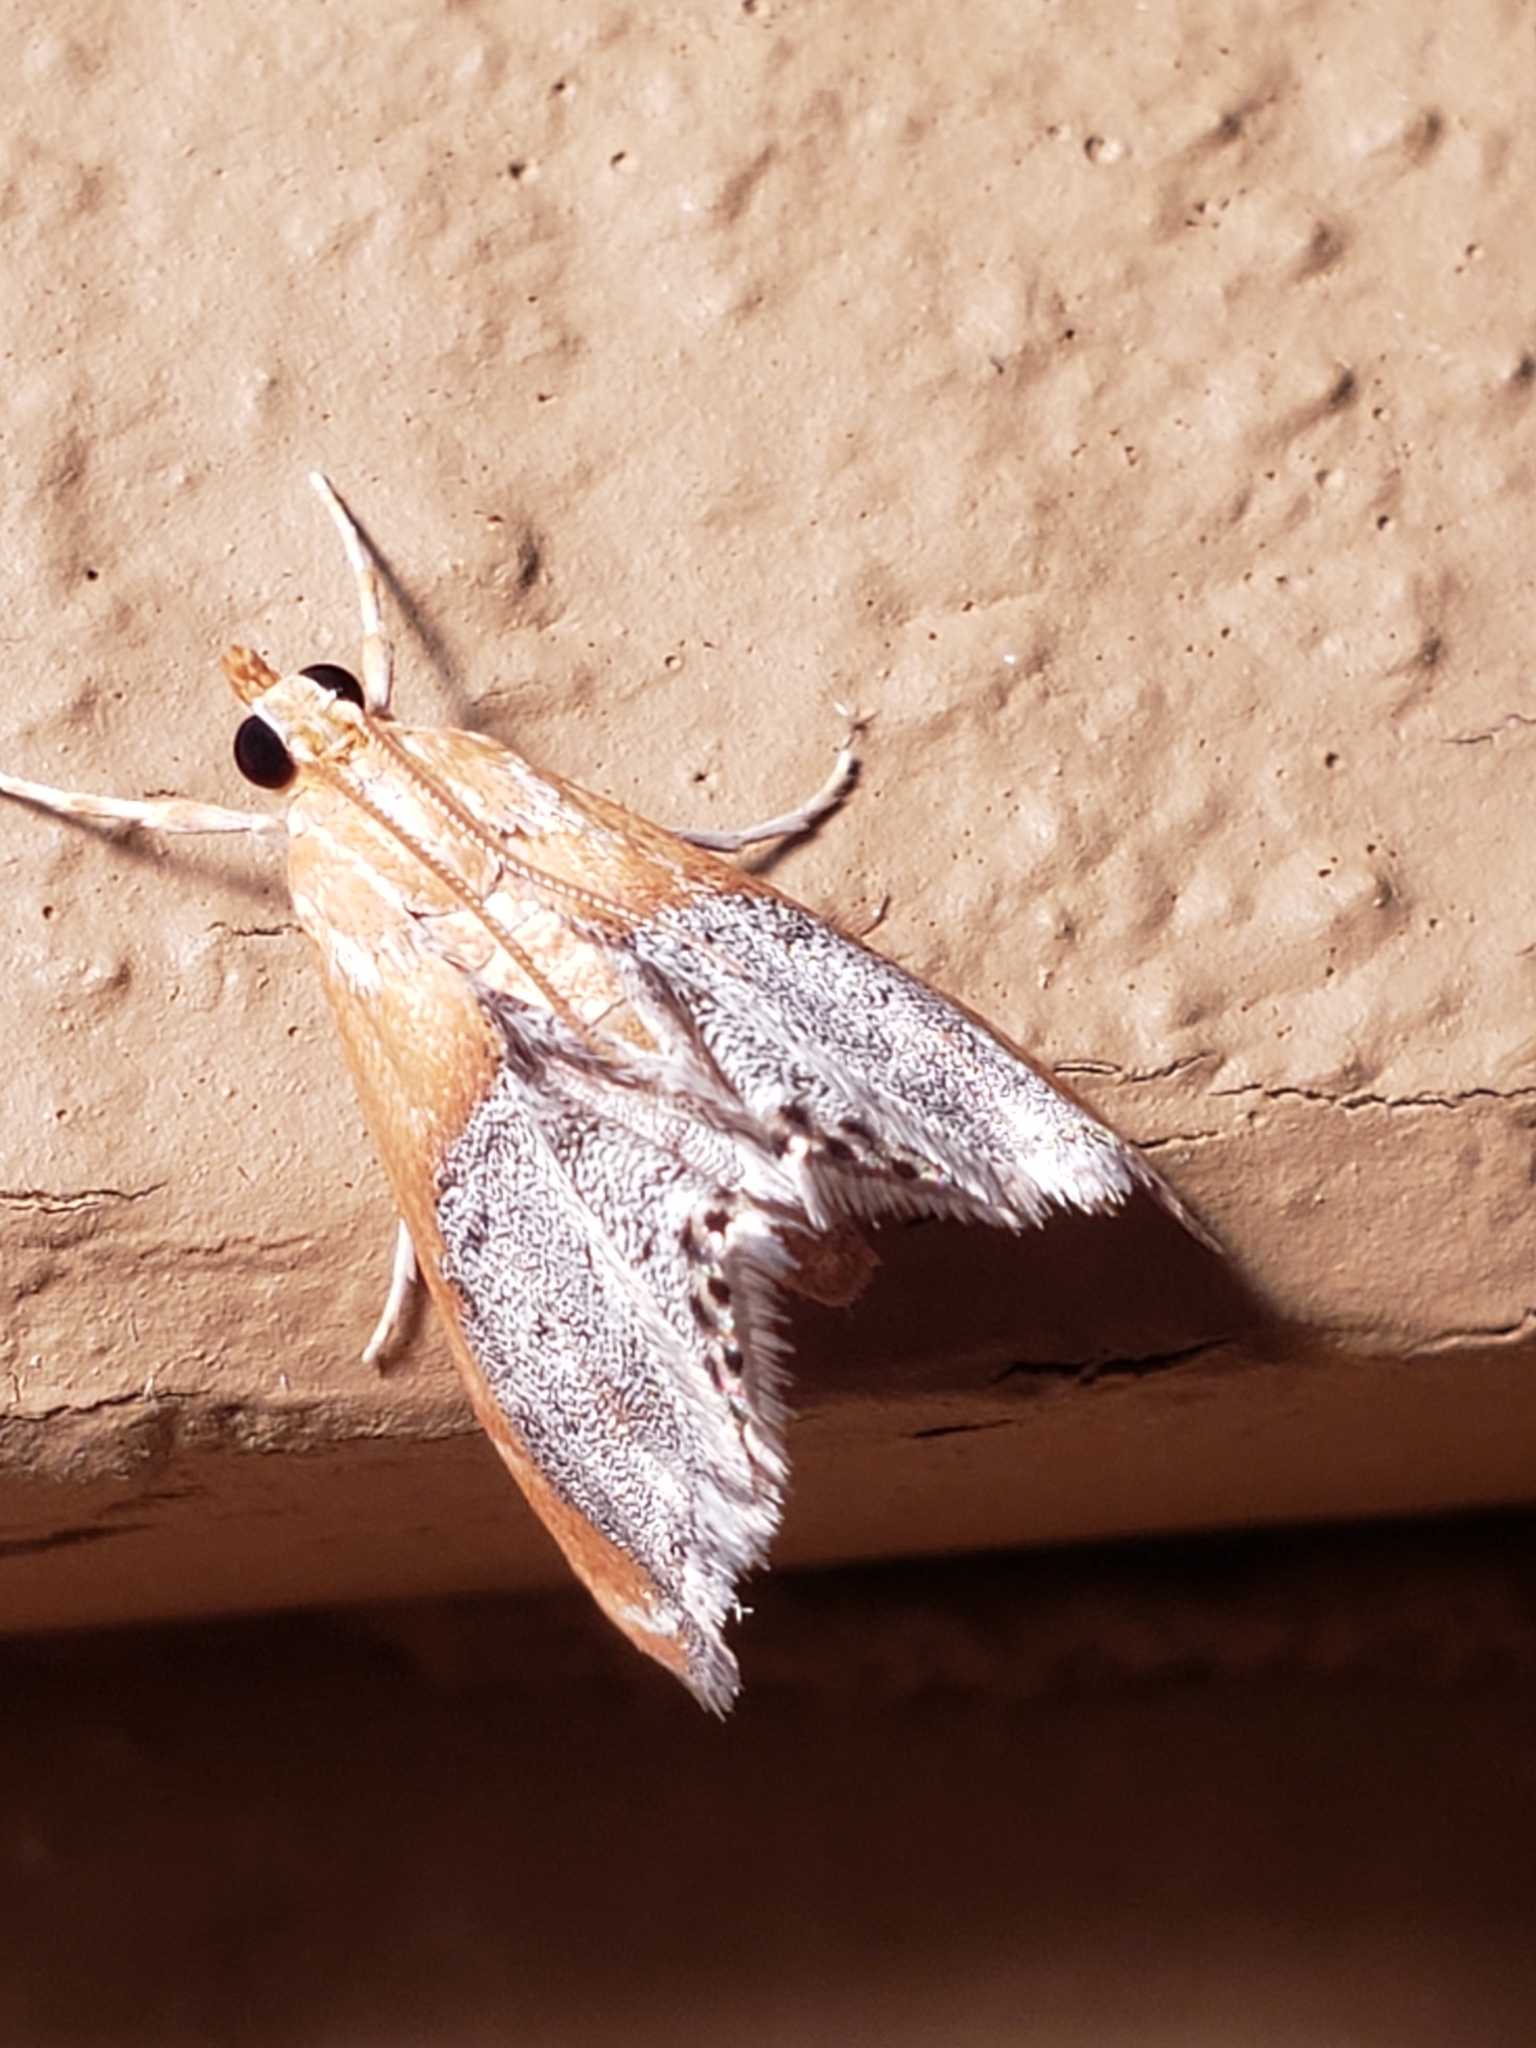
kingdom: Animalia
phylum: Arthropoda
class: Insecta
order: Lepidoptera
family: Crambidae
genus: Chalcoela
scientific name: Chalcoela iphitalis
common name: Sooty-winged chalcoela moth
